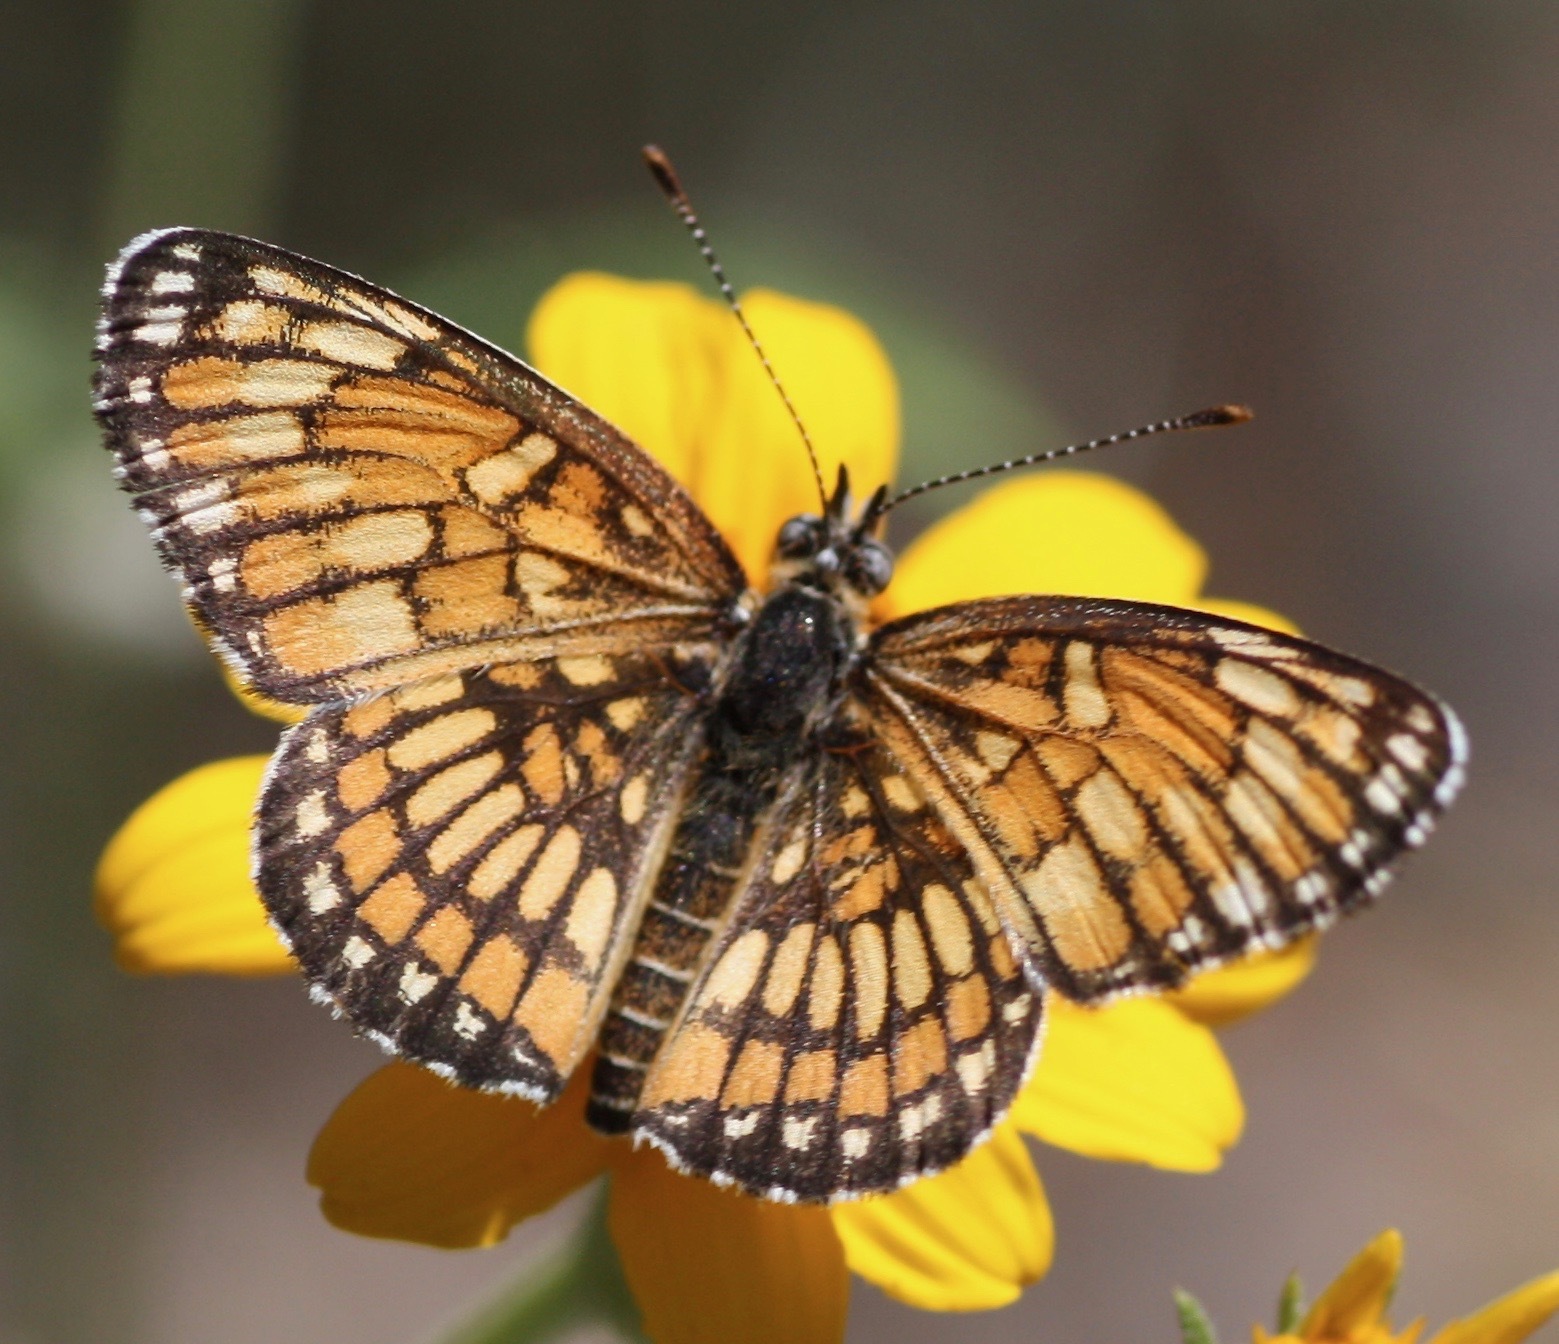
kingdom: Animalia
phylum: Arthropoda
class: Insecta
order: Lepidoptera
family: Nymphalidae
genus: Thessalia
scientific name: Thessalia theona
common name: Nymphalid moth
